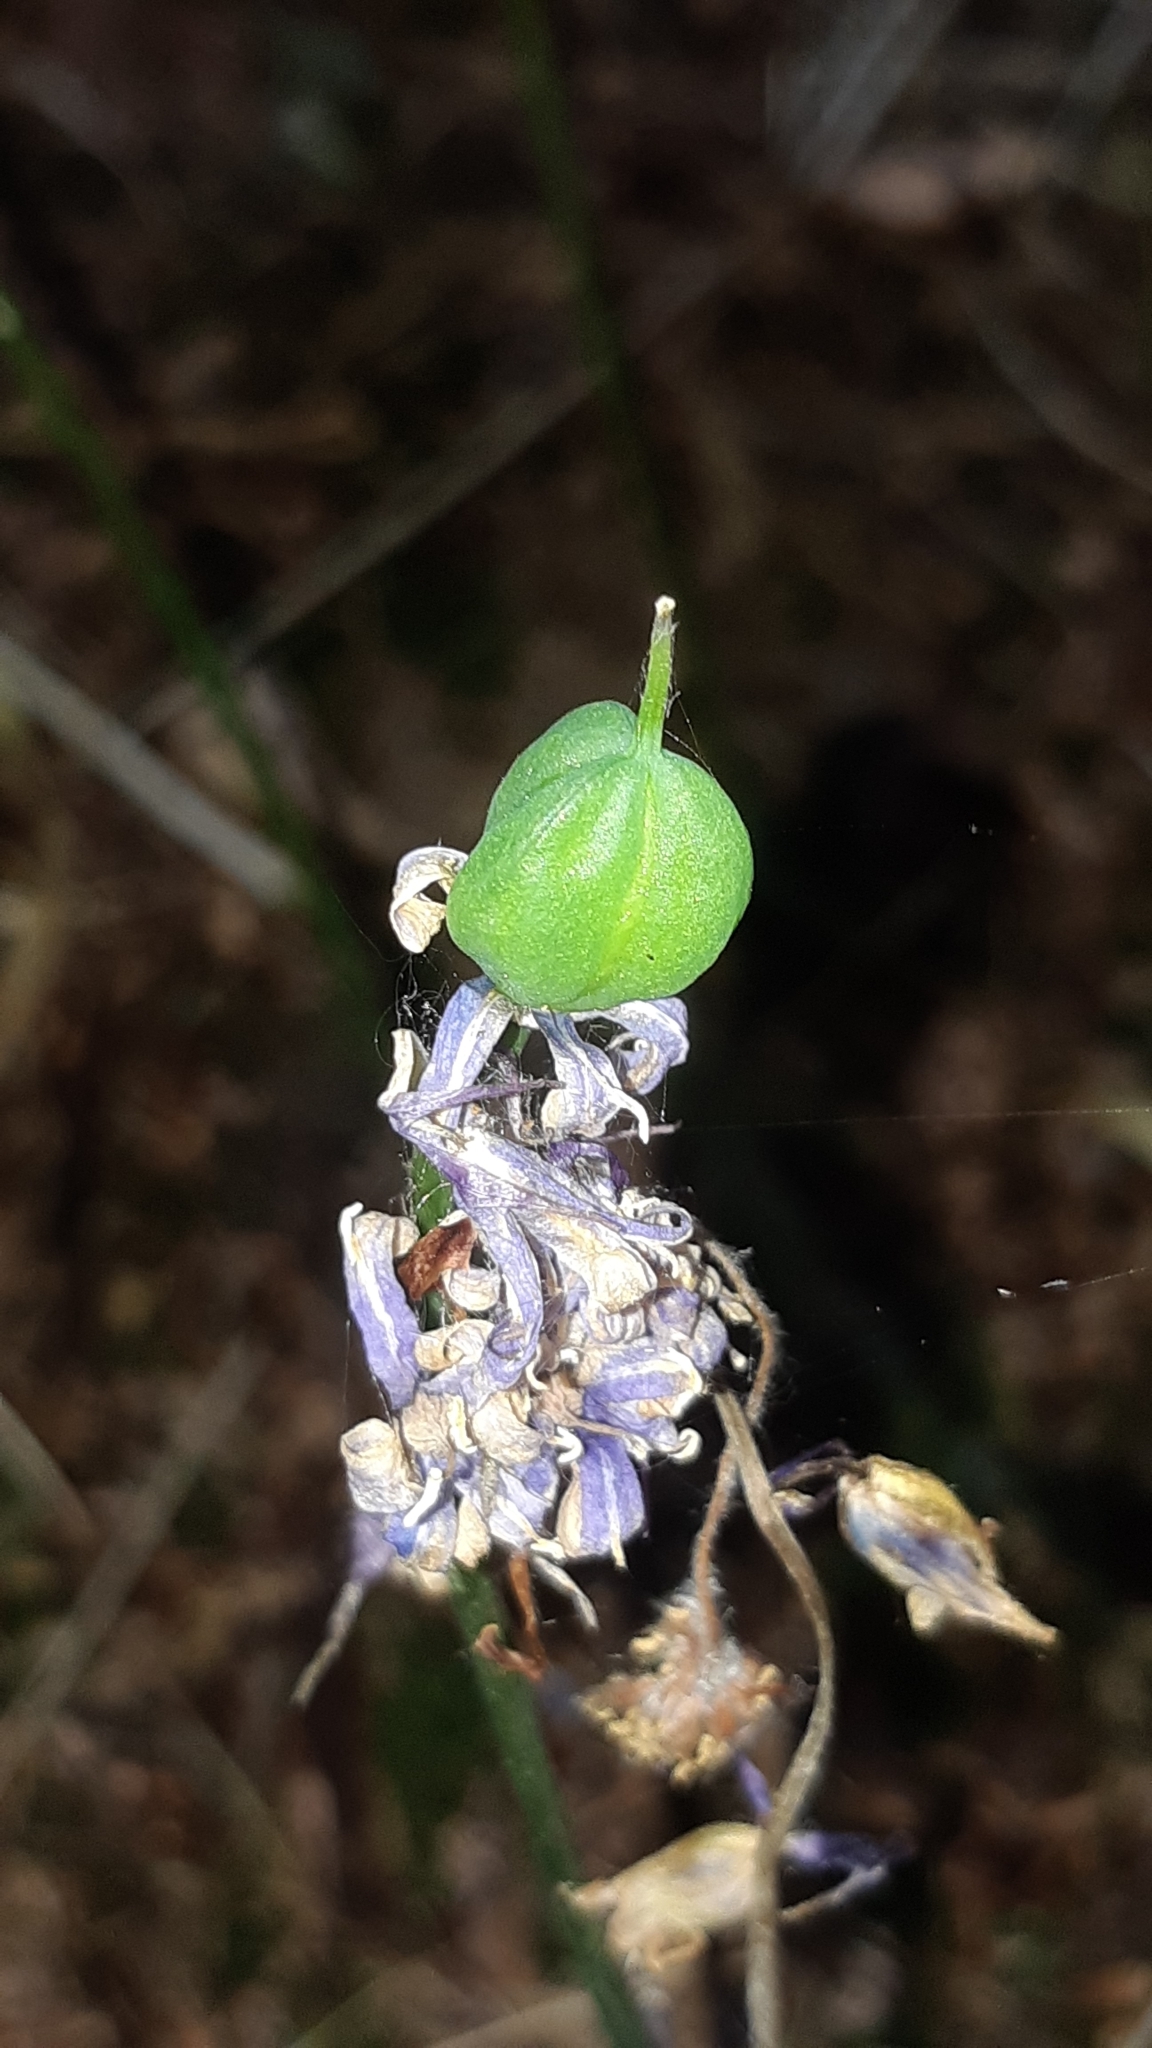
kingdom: Plantae
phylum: Tracheophyta
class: Liliopsida
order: Asparagales
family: Asparagaceae
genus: Hyacinthoides
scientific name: Hyacinthoides non-scripta
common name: Bluebell
